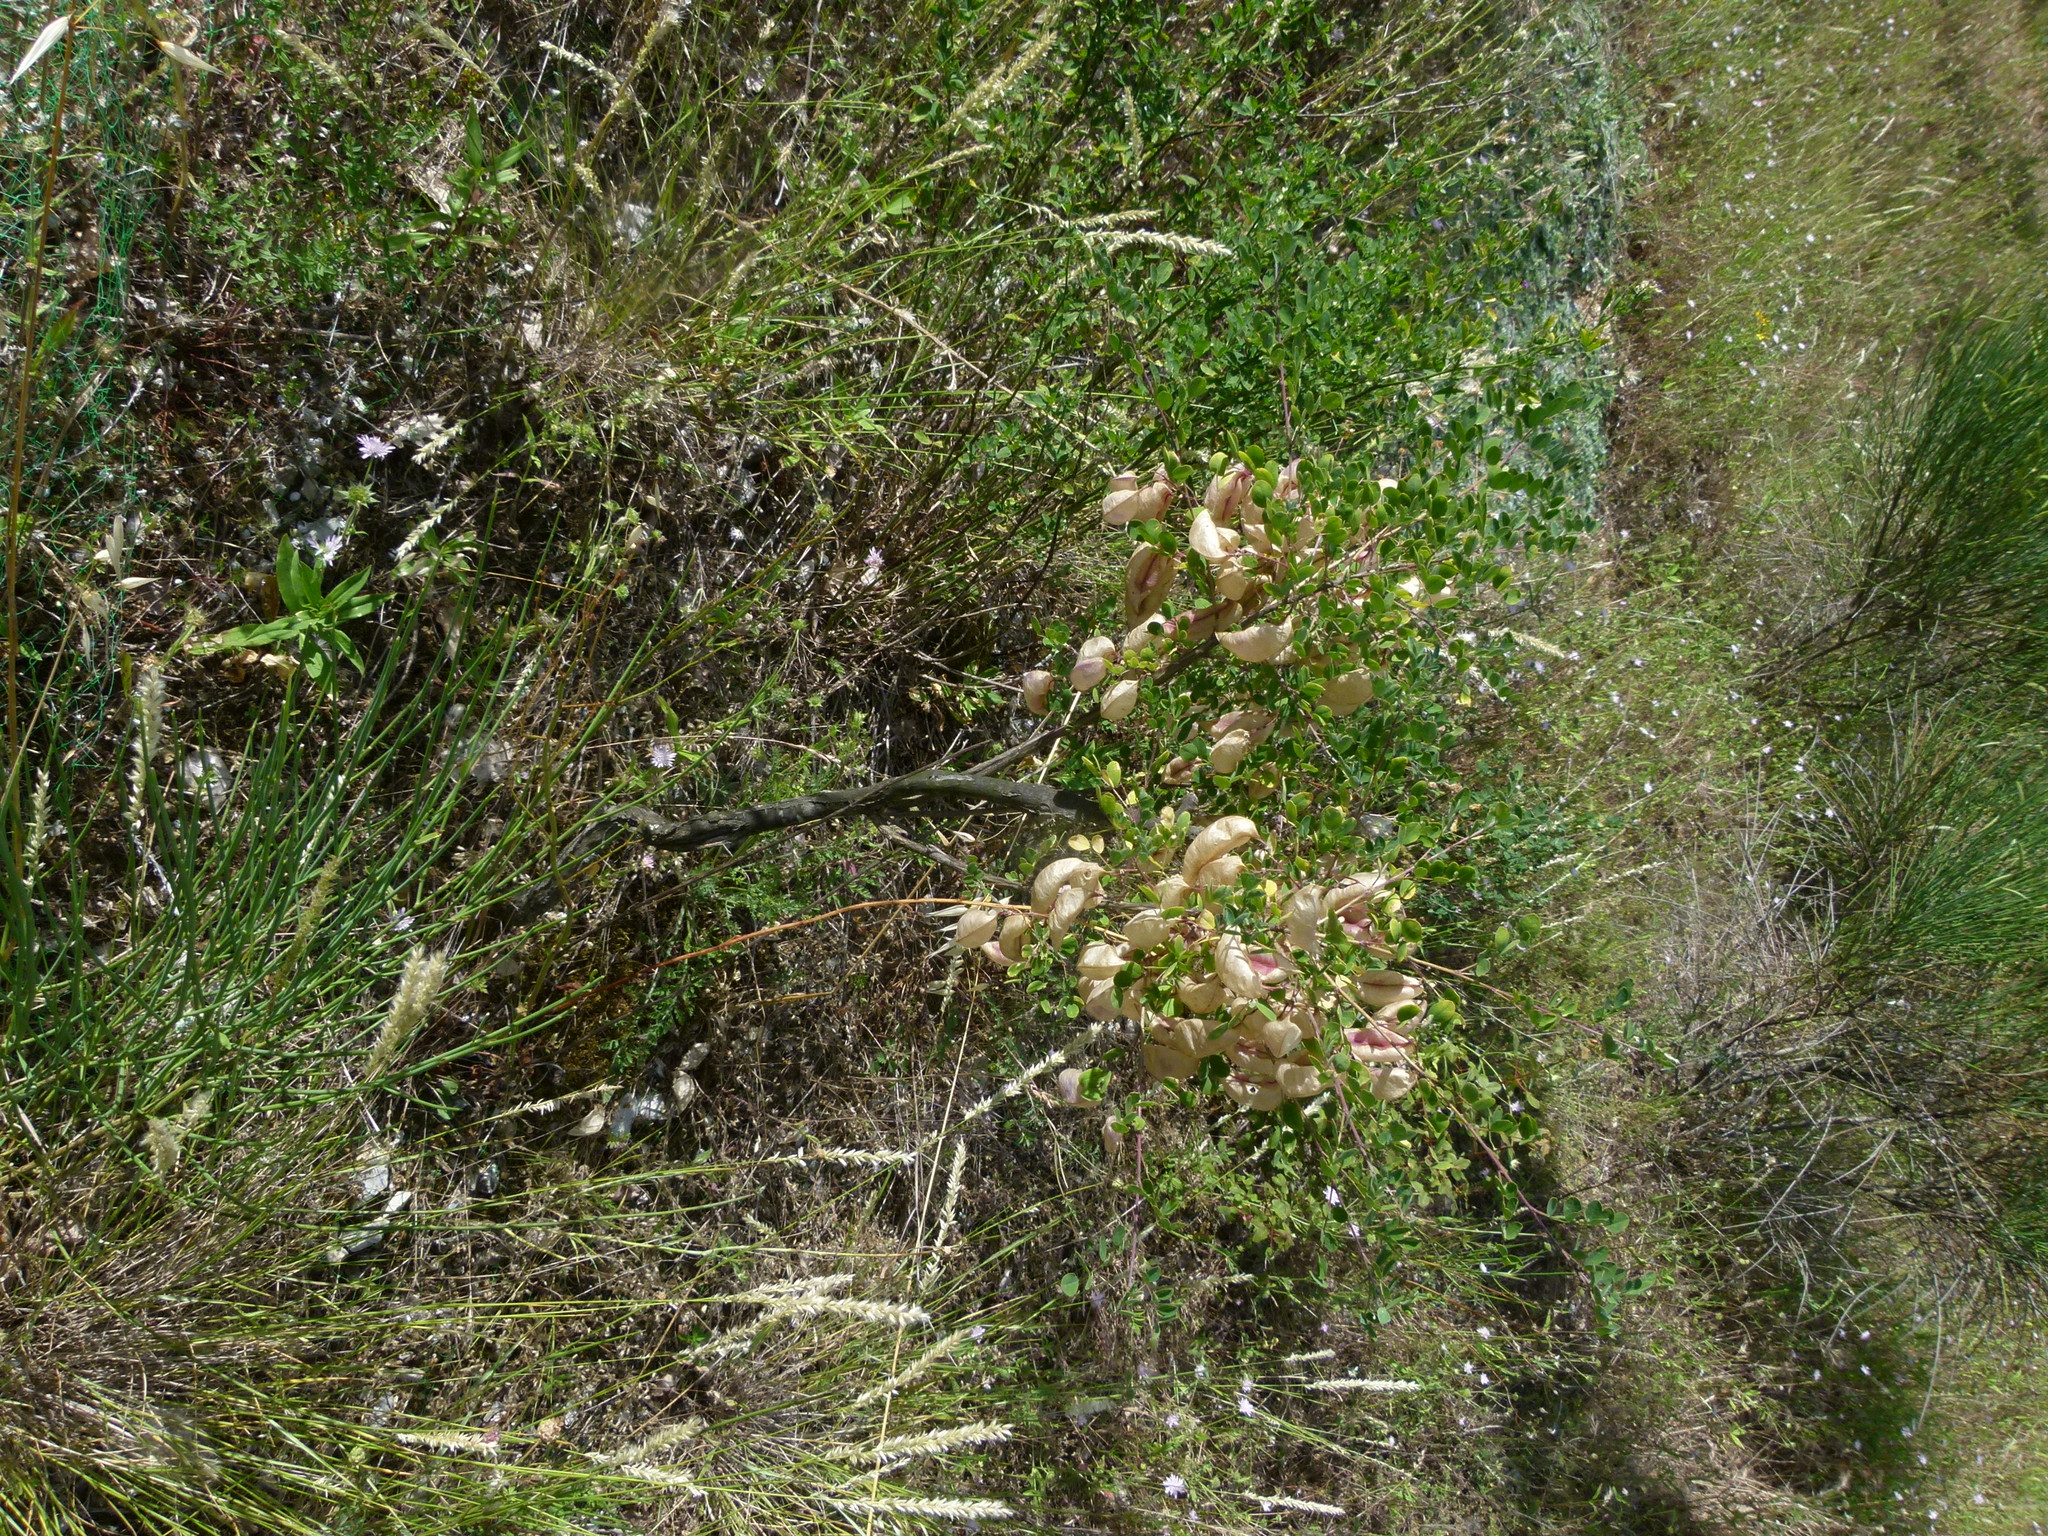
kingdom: Plantae
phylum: Tracheophyta
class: Magnoliopsida
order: Fabales
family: Fabaceae
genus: Colutea
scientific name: Colutea arborescens
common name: Bladder-senna
